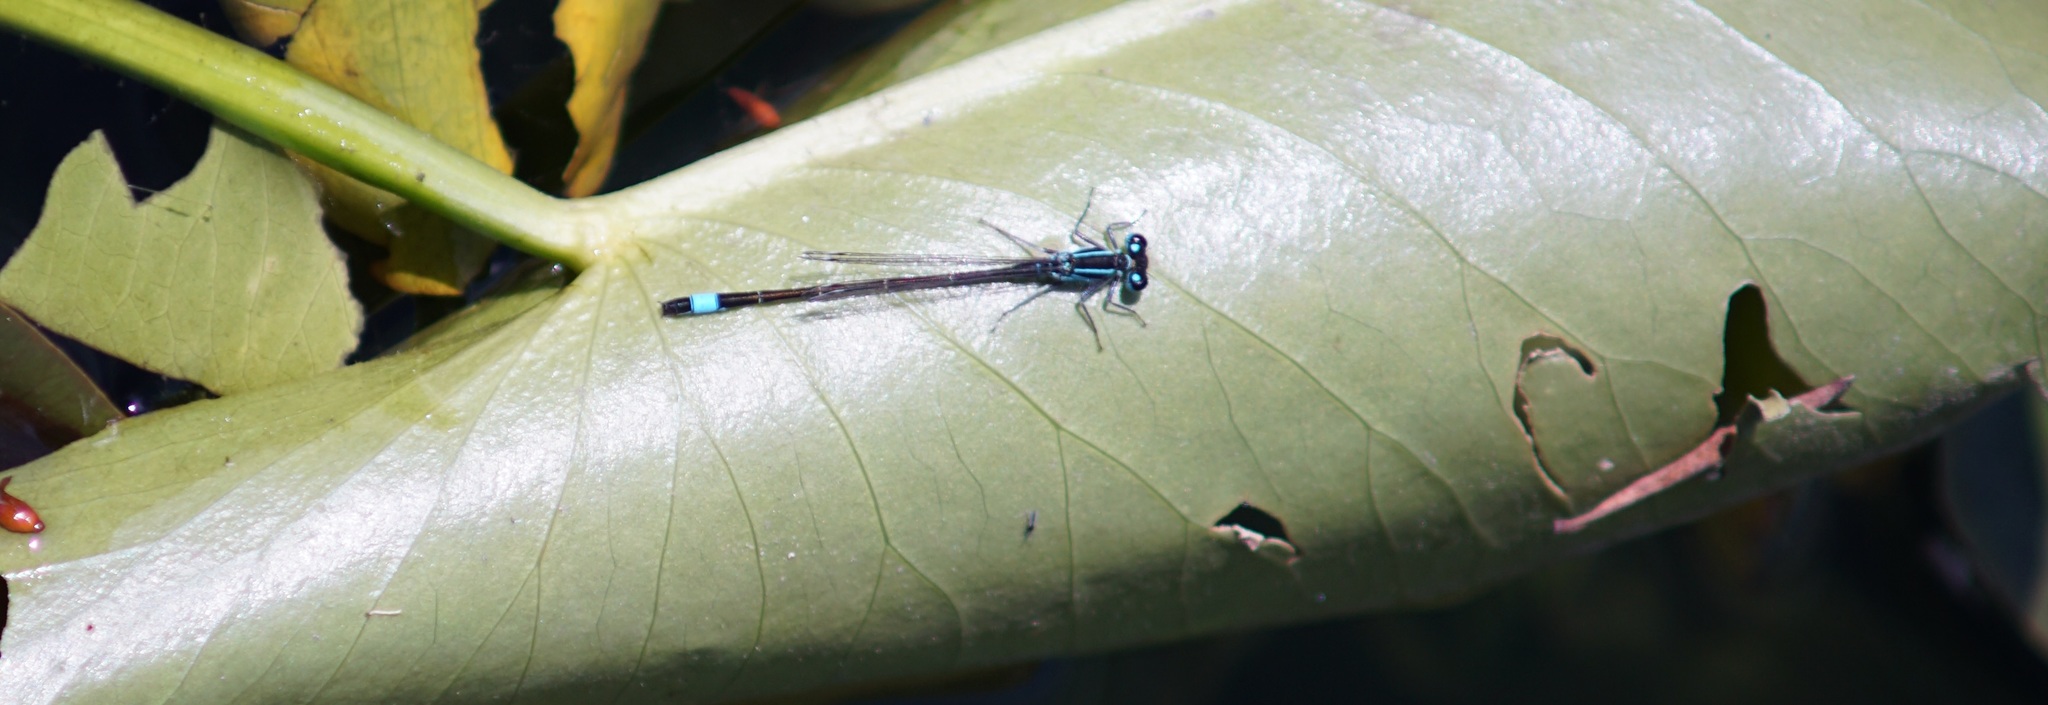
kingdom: Animalia
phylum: Arthropoda
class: Insecta
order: Odonata
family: Coenagrionidae
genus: Ischnura
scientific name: Ischnura elegans
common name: Blue-tailed damselfly
